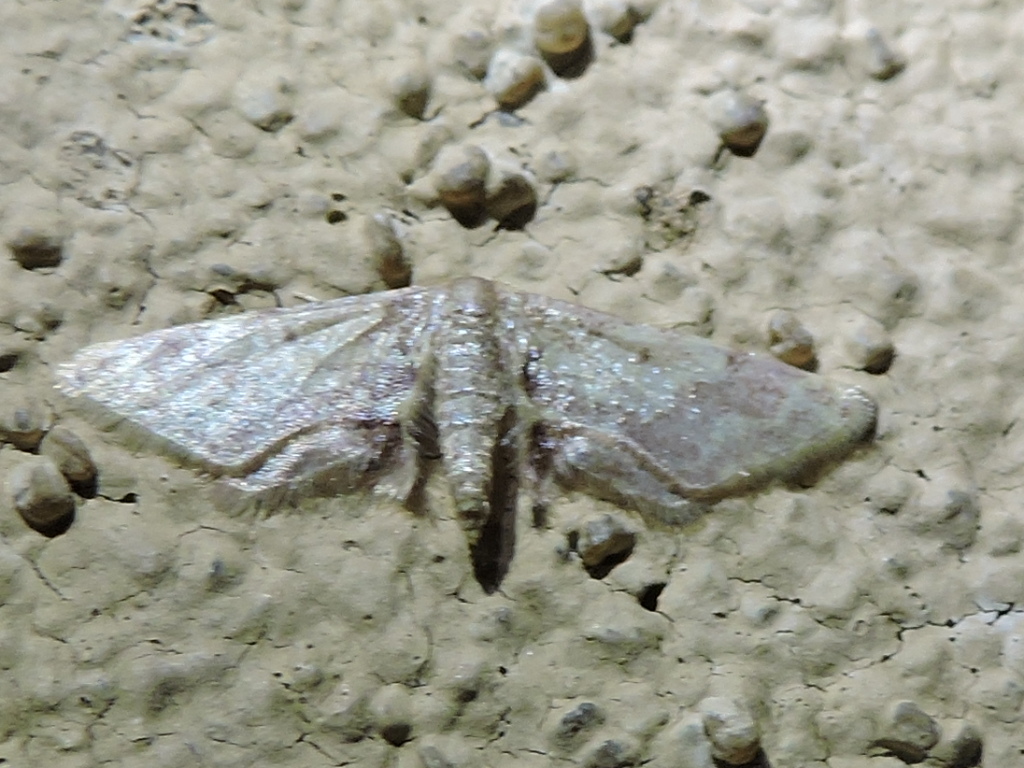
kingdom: Animalia
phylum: Arthropoda
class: Insecta
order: Lepidoptera
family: Geometridae
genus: Idaea
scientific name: Idaea furciferata
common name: Notch-winged wave
